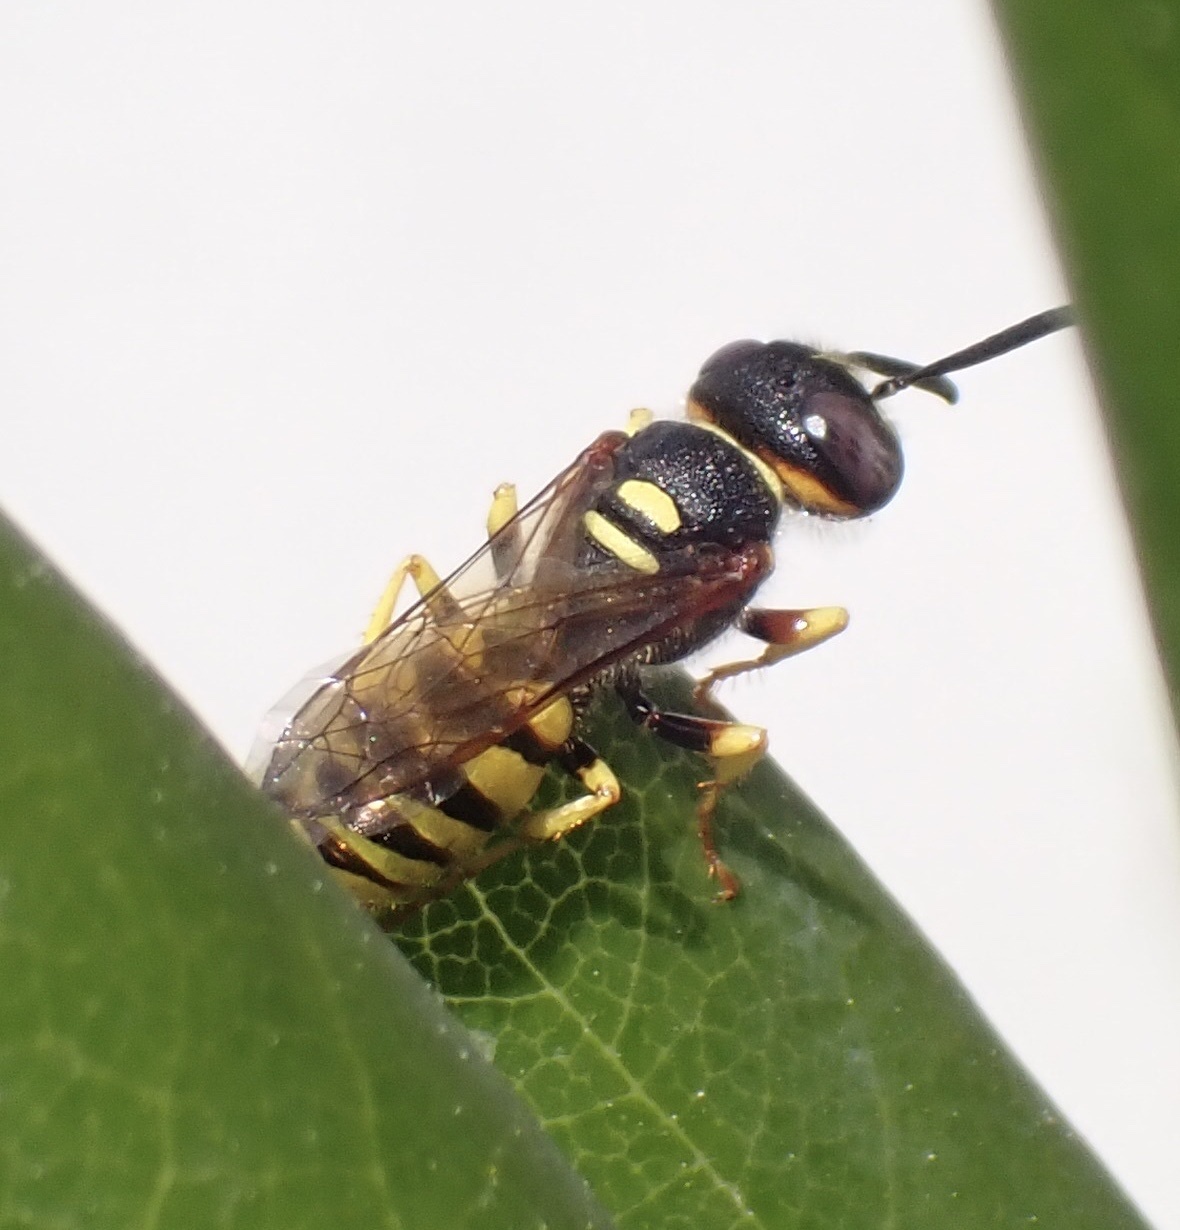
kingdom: Animalia
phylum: Arthropoda
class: Insecta
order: Hymenoptera
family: Crabronidae
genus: Philanthus
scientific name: Philanthus triangulum
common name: Bee wolf
